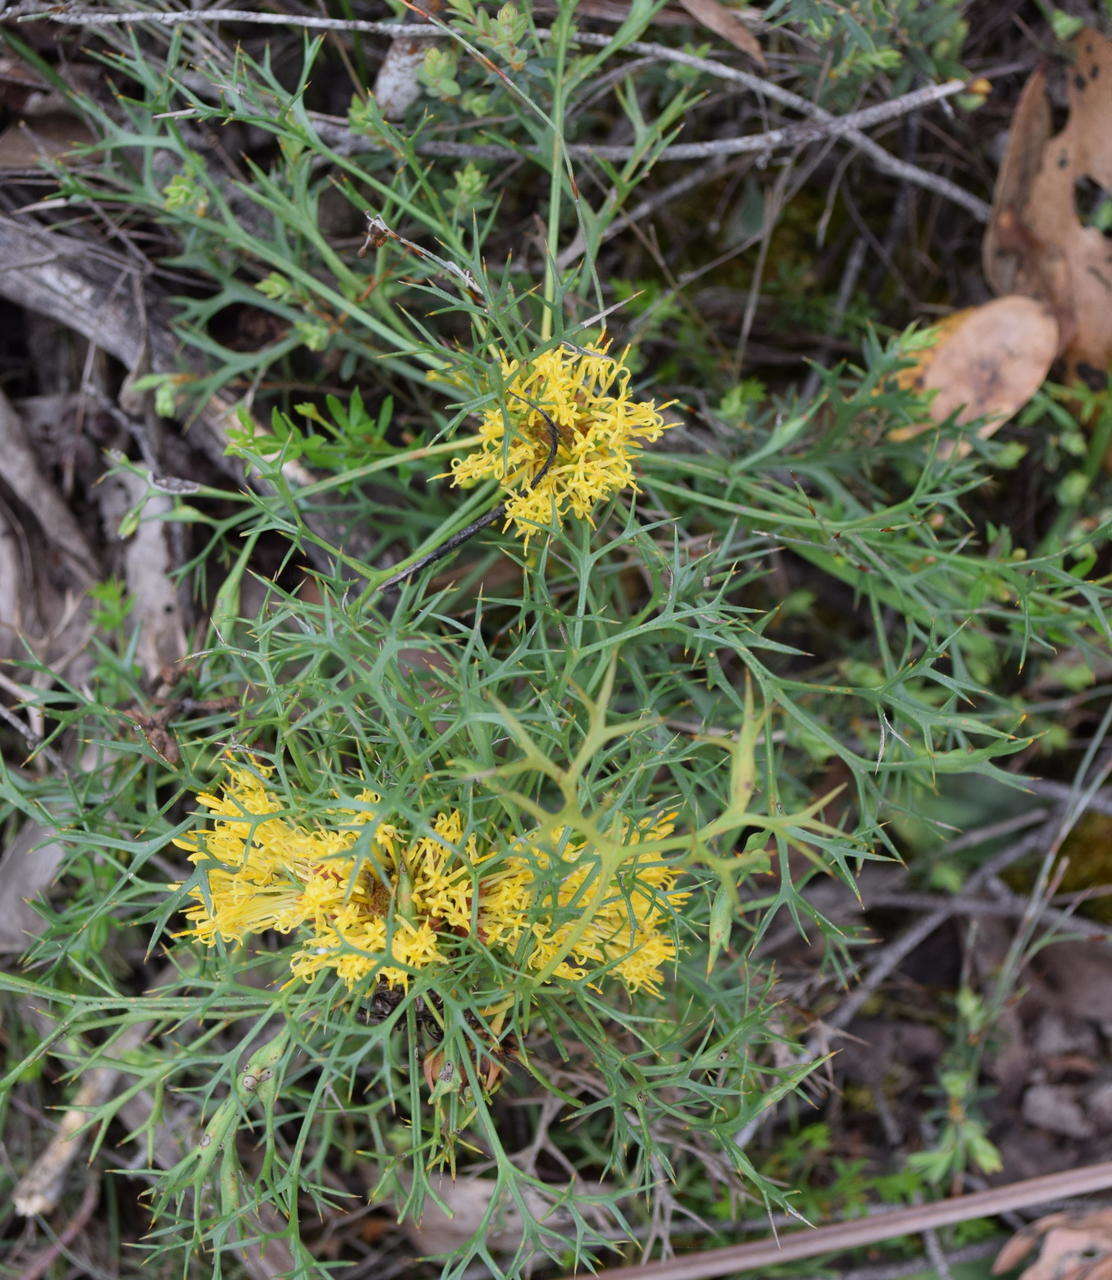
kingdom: Plantae
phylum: Tracheophyta
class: Magnoliopsida
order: Proteales
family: Proteaceae
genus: Isopogon
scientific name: Isopogon ceratophyllus
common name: Horny cone-bush
